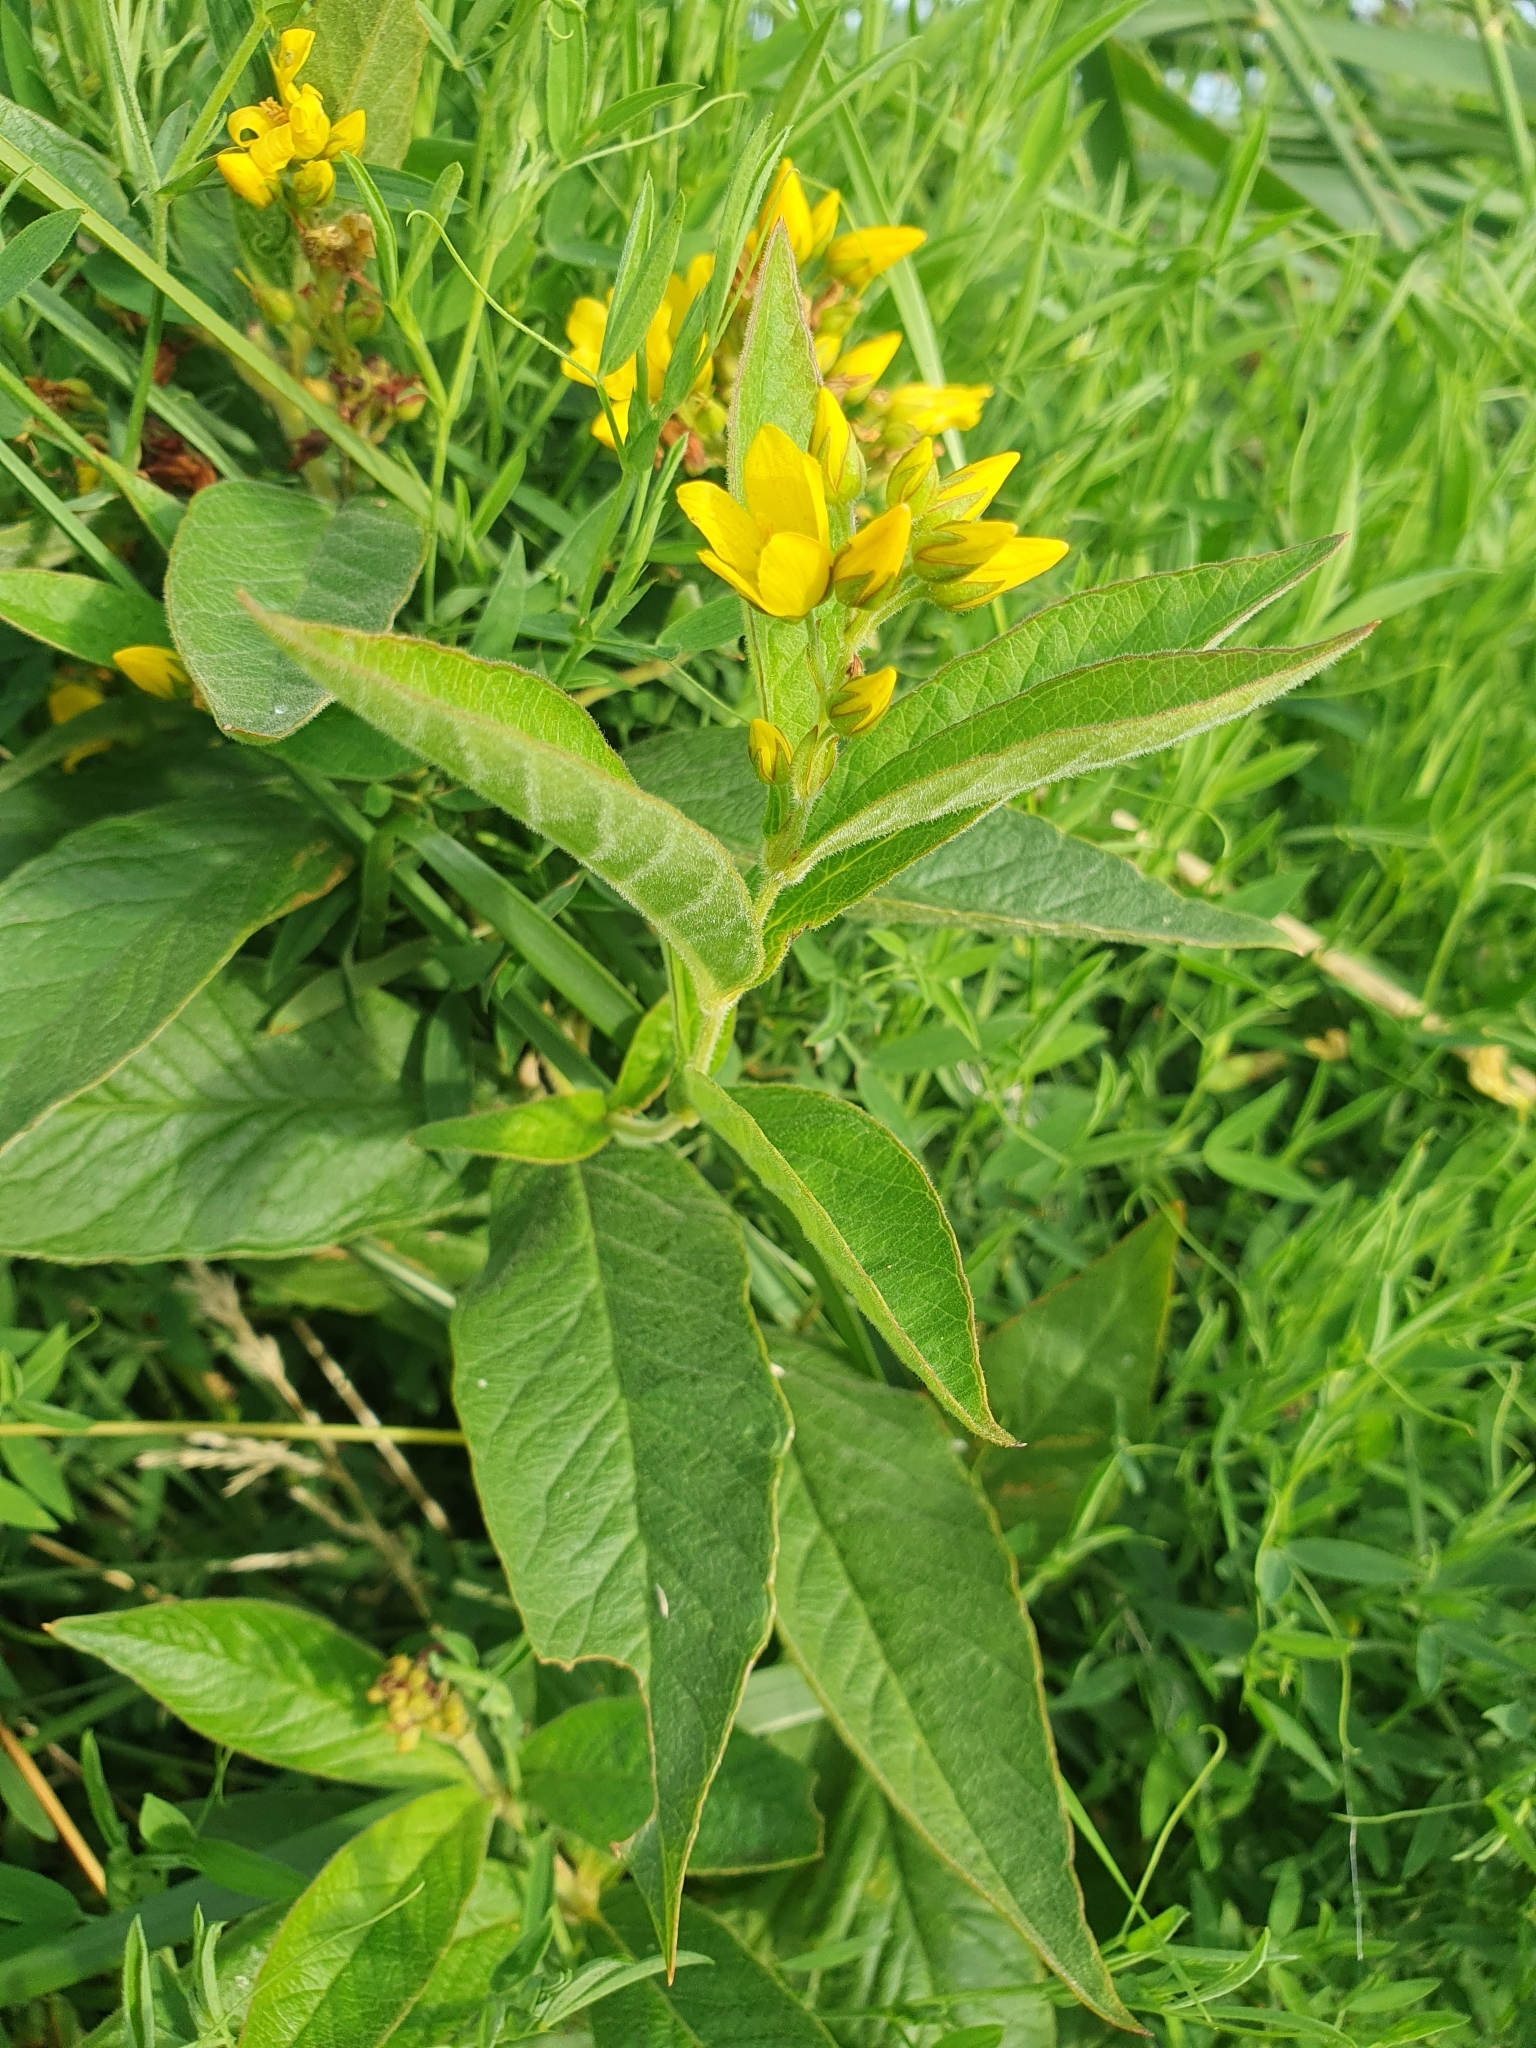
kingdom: Plantae
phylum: Tracheophyta
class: Magnoliopsida
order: Ericales
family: Primulaceae
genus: Lysimachia
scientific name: Lysimachia vulgaris
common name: Yellow loosestrife
